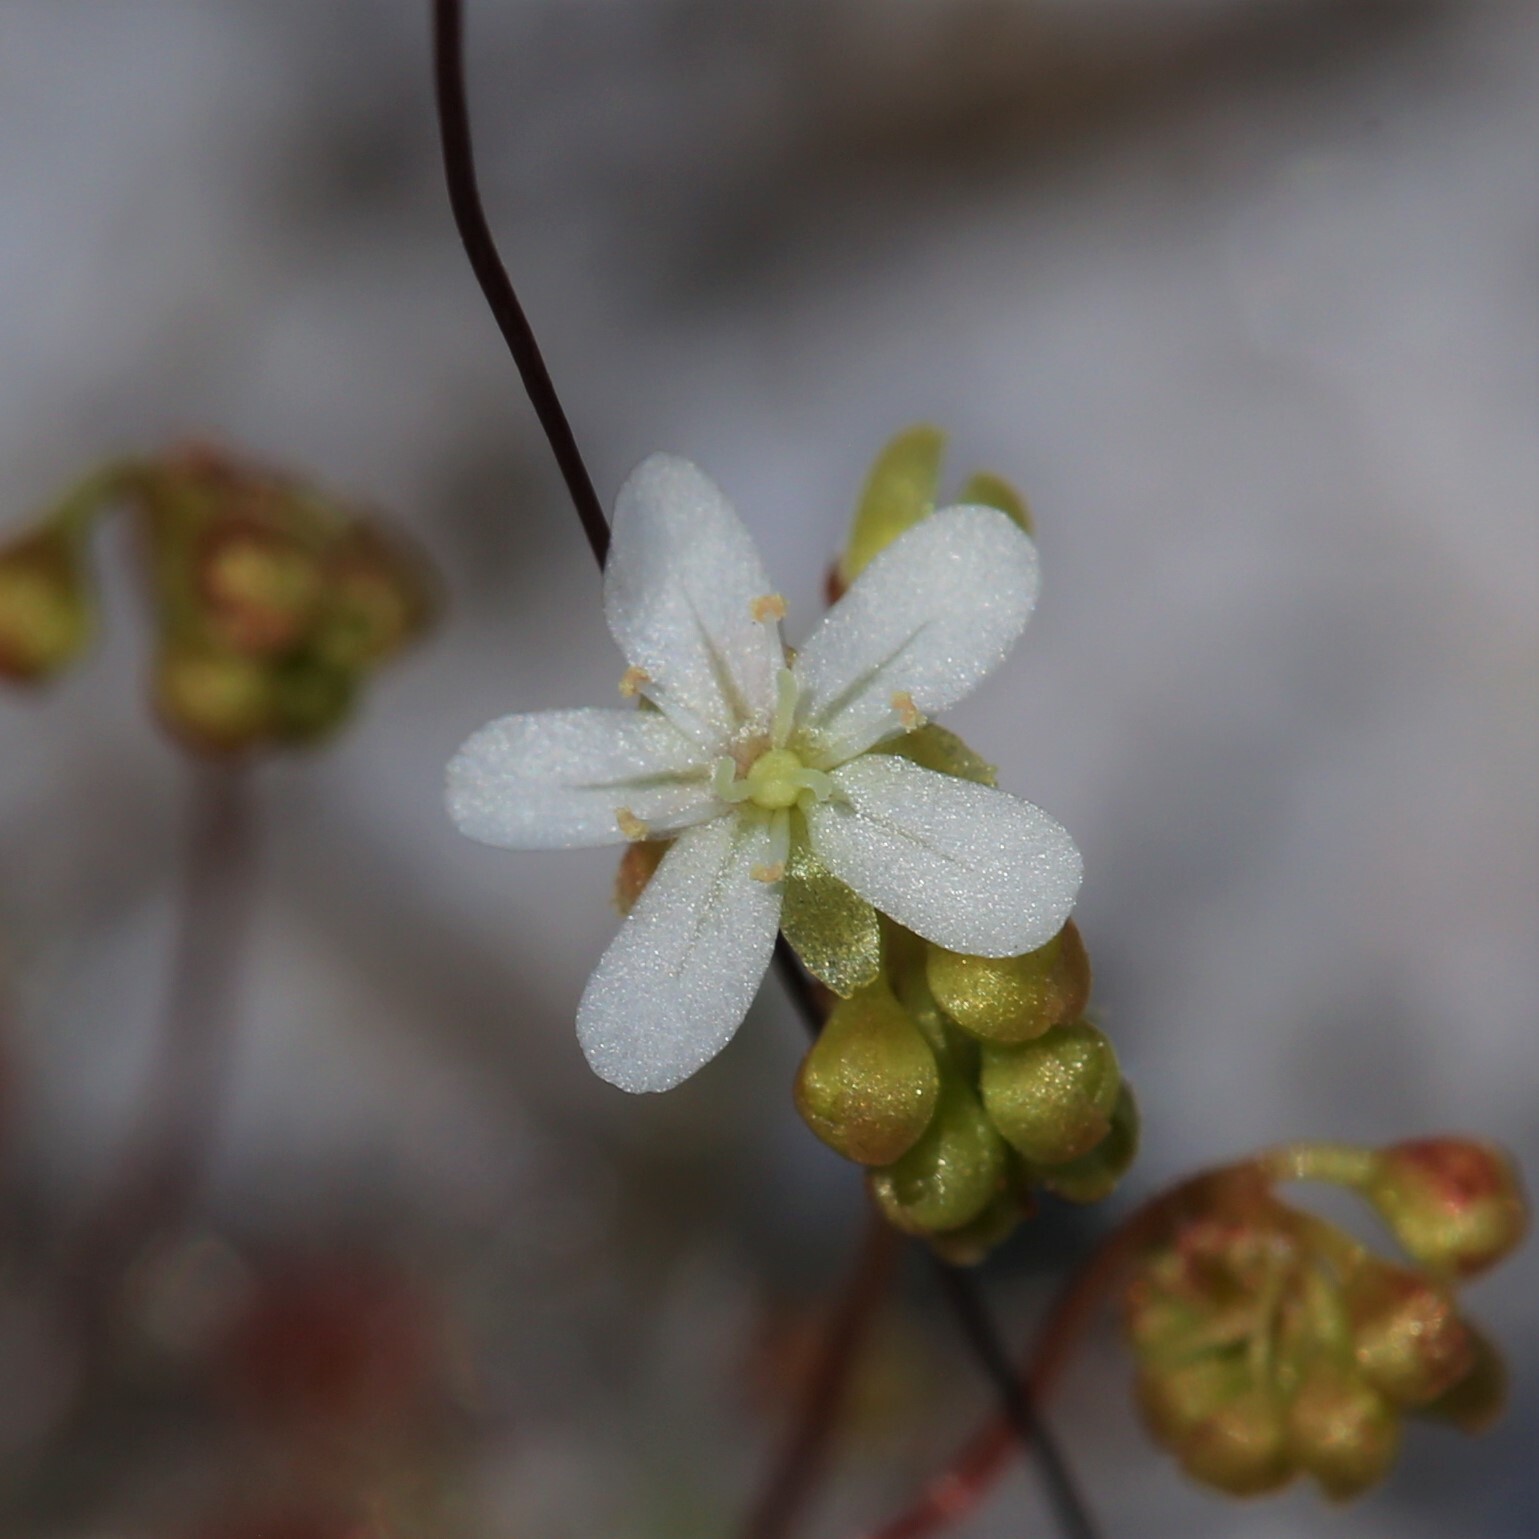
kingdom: Plantae
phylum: Tracheophyta
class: Magnoliopsida
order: Caryophyllales
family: Droseraceae
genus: Drosera
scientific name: Drosera paleacea
